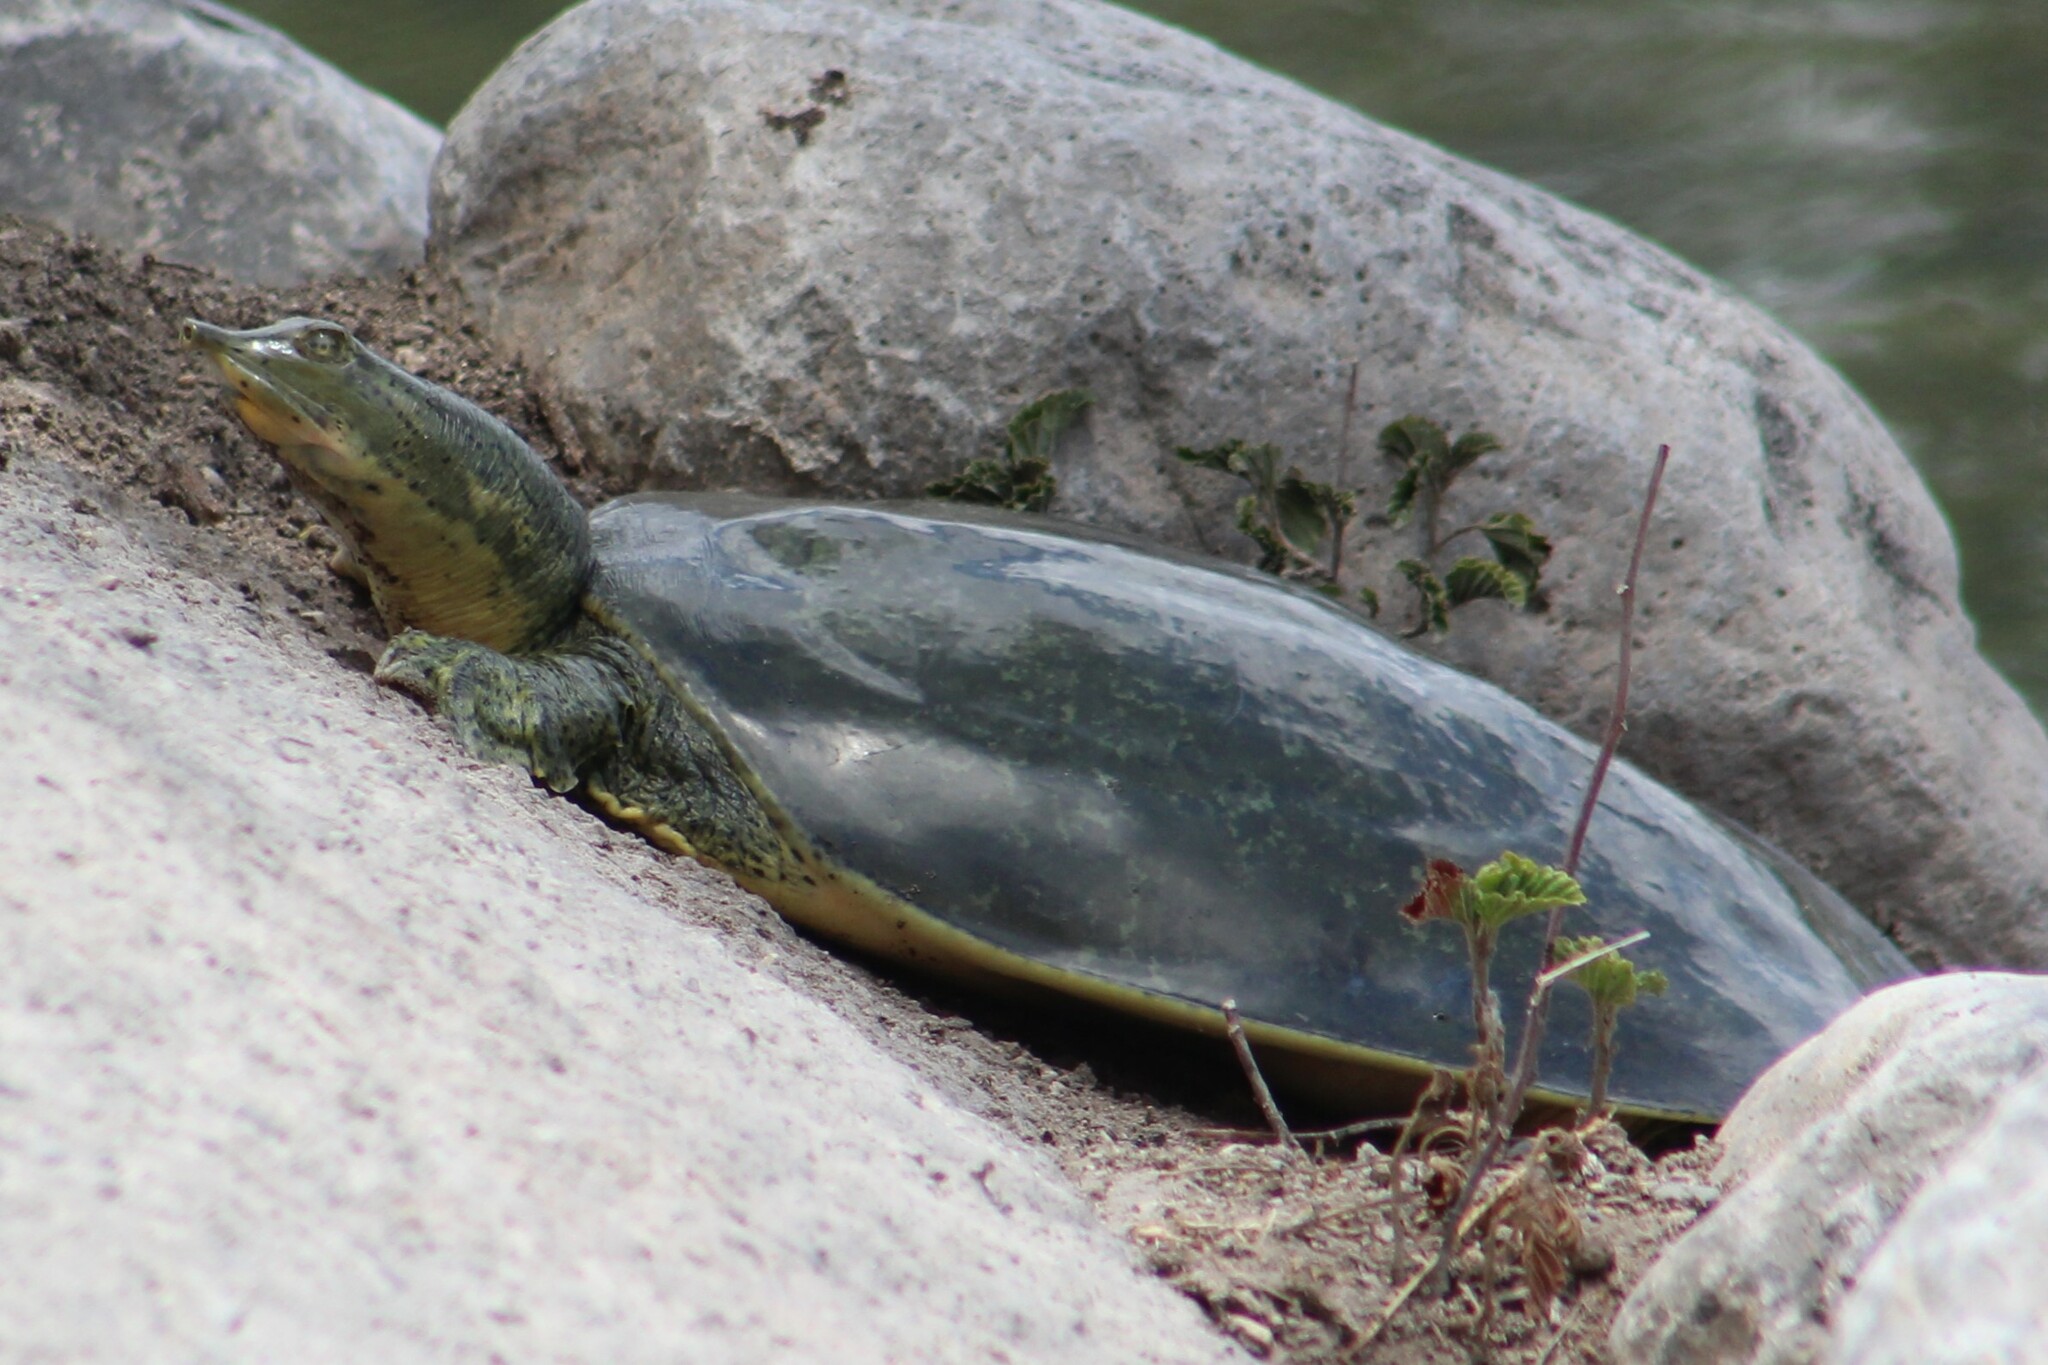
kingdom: Animalia
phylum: Chordata
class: Testudines
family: Trionychidae
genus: Apalone
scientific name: Apalone spinifera
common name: Spiny softshell turtle
